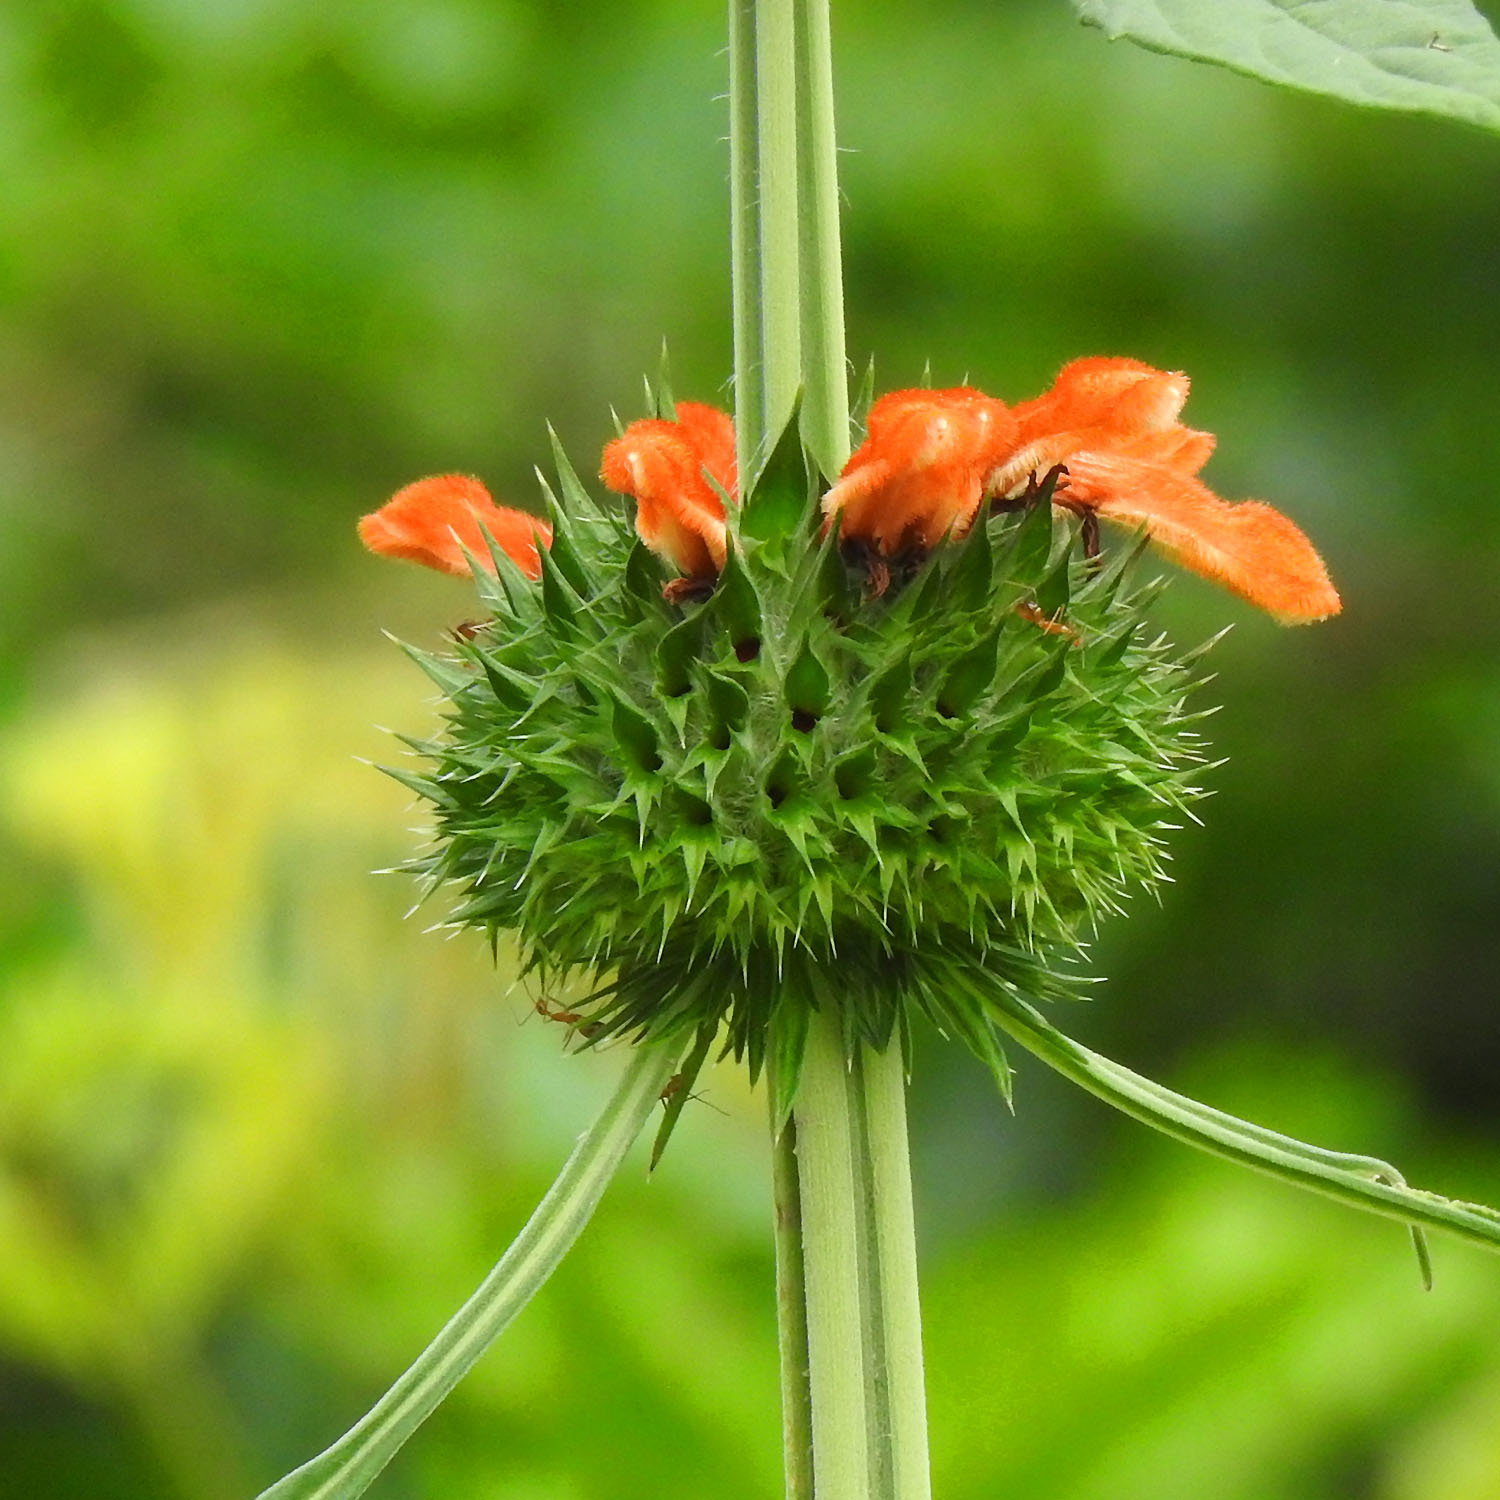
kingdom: Plantae
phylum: Tracheophyta
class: Magnoliopsida
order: Lamiales
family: Lamiaceae
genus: Leonotis
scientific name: Leonotis nepetifolia
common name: Christmas candlestick
